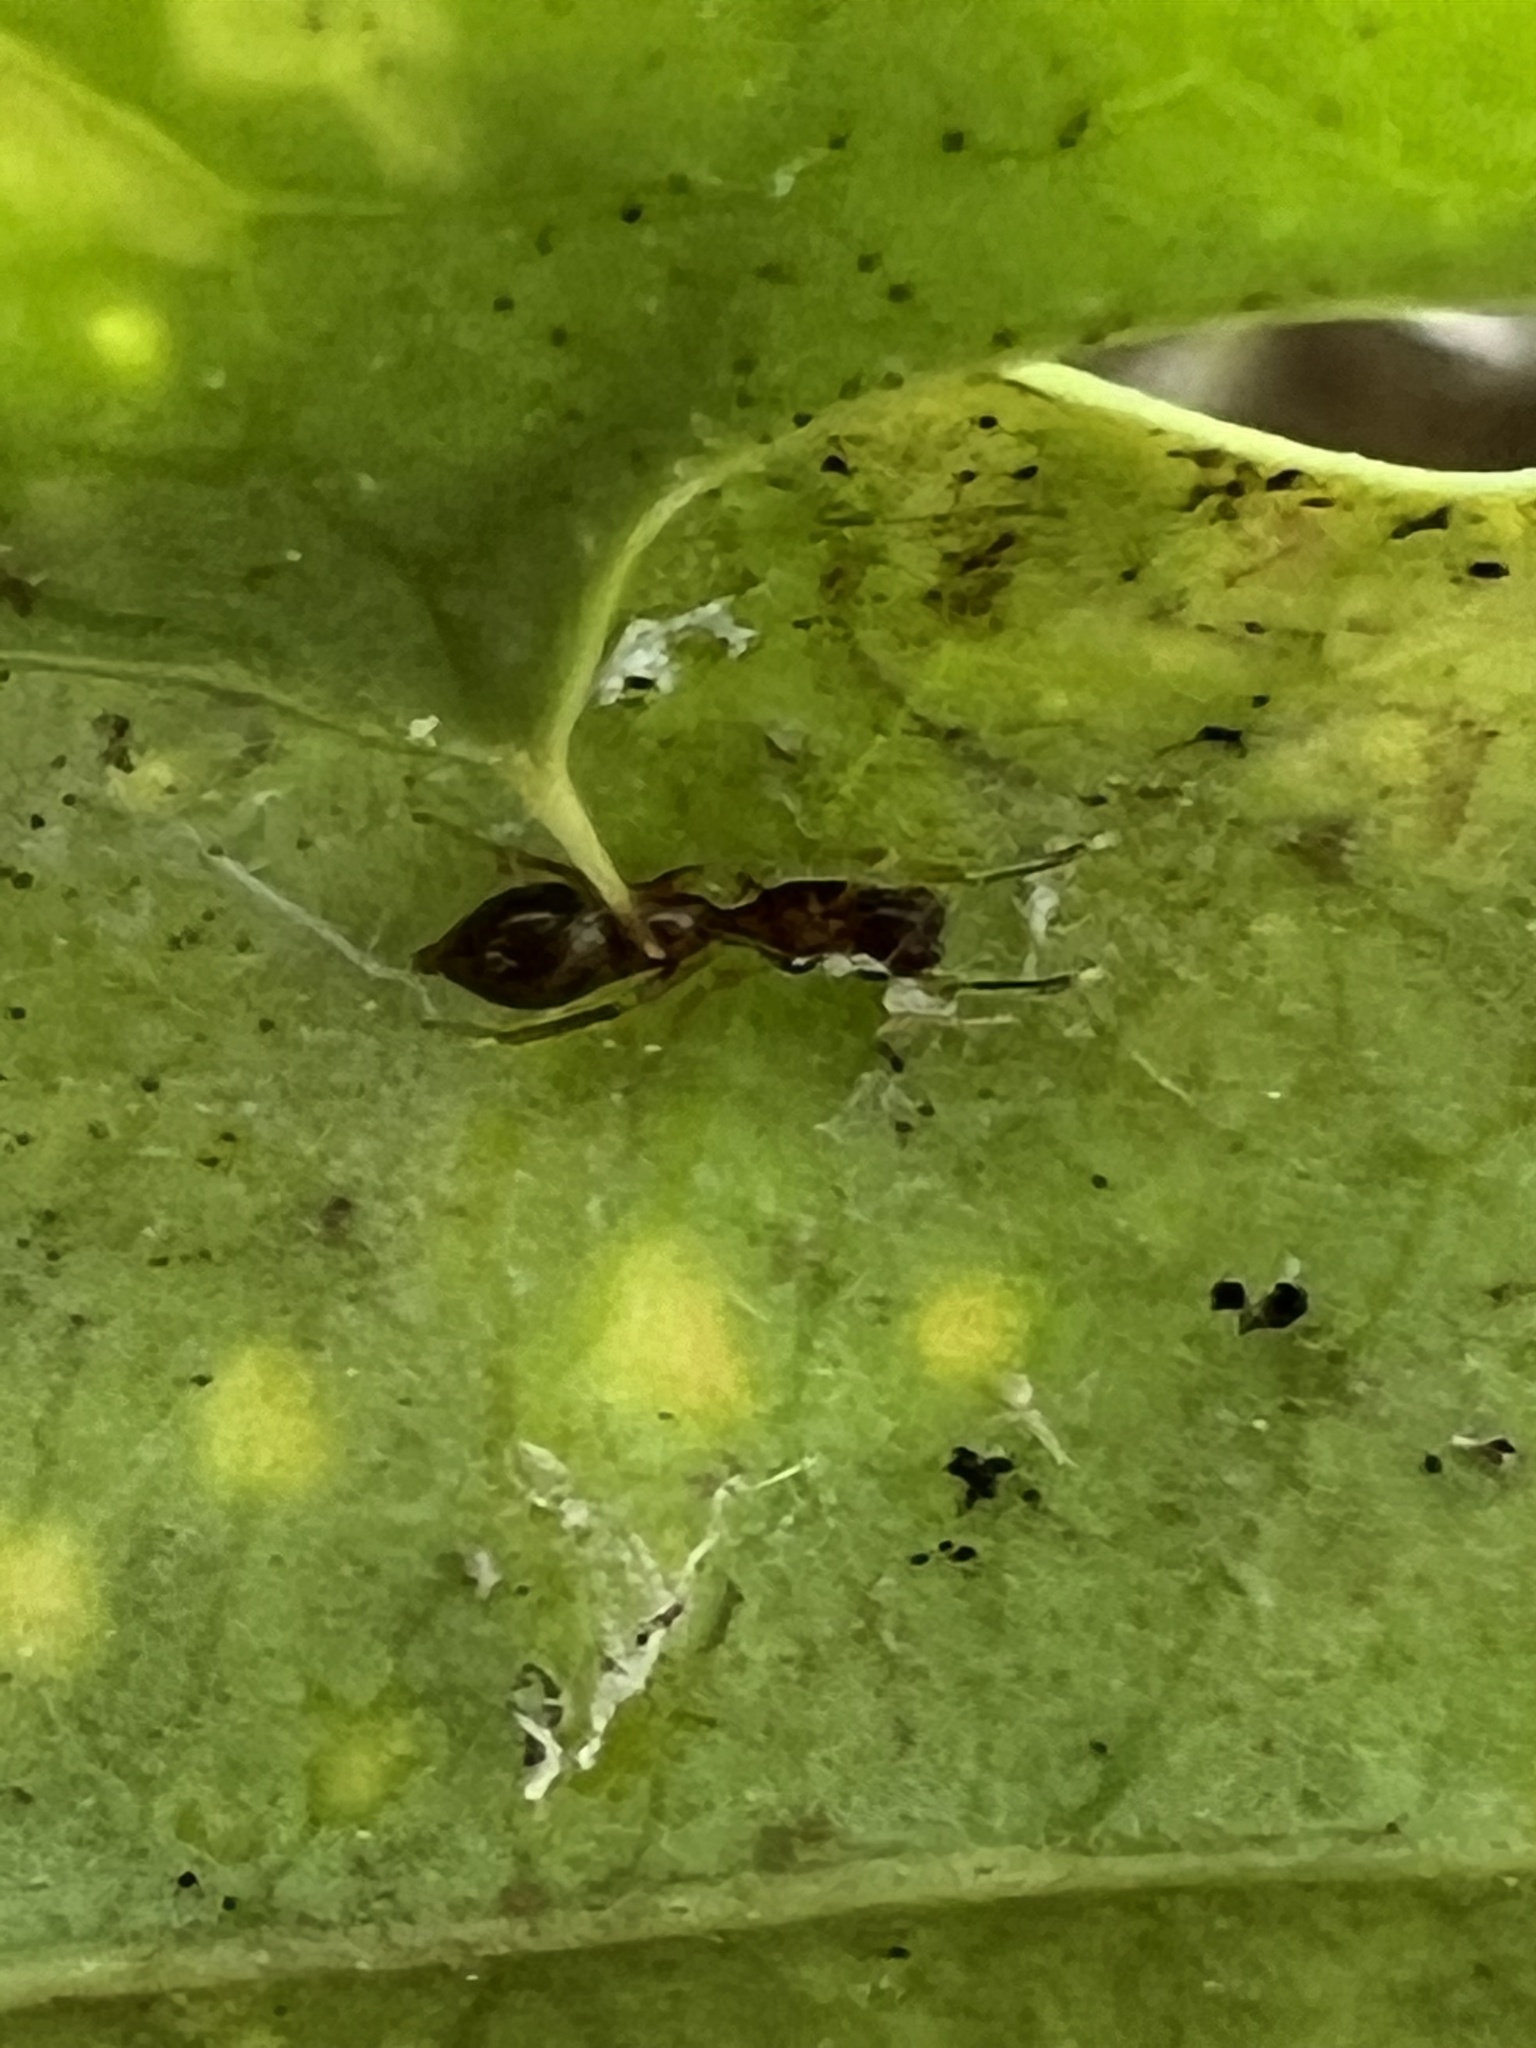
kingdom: Animalia
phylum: Arthropoda
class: Arachnida
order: Araneae
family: Salticidae
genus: Synemosyna
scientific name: Synemosyna formica
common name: Slender ant-mimic jumping spider
